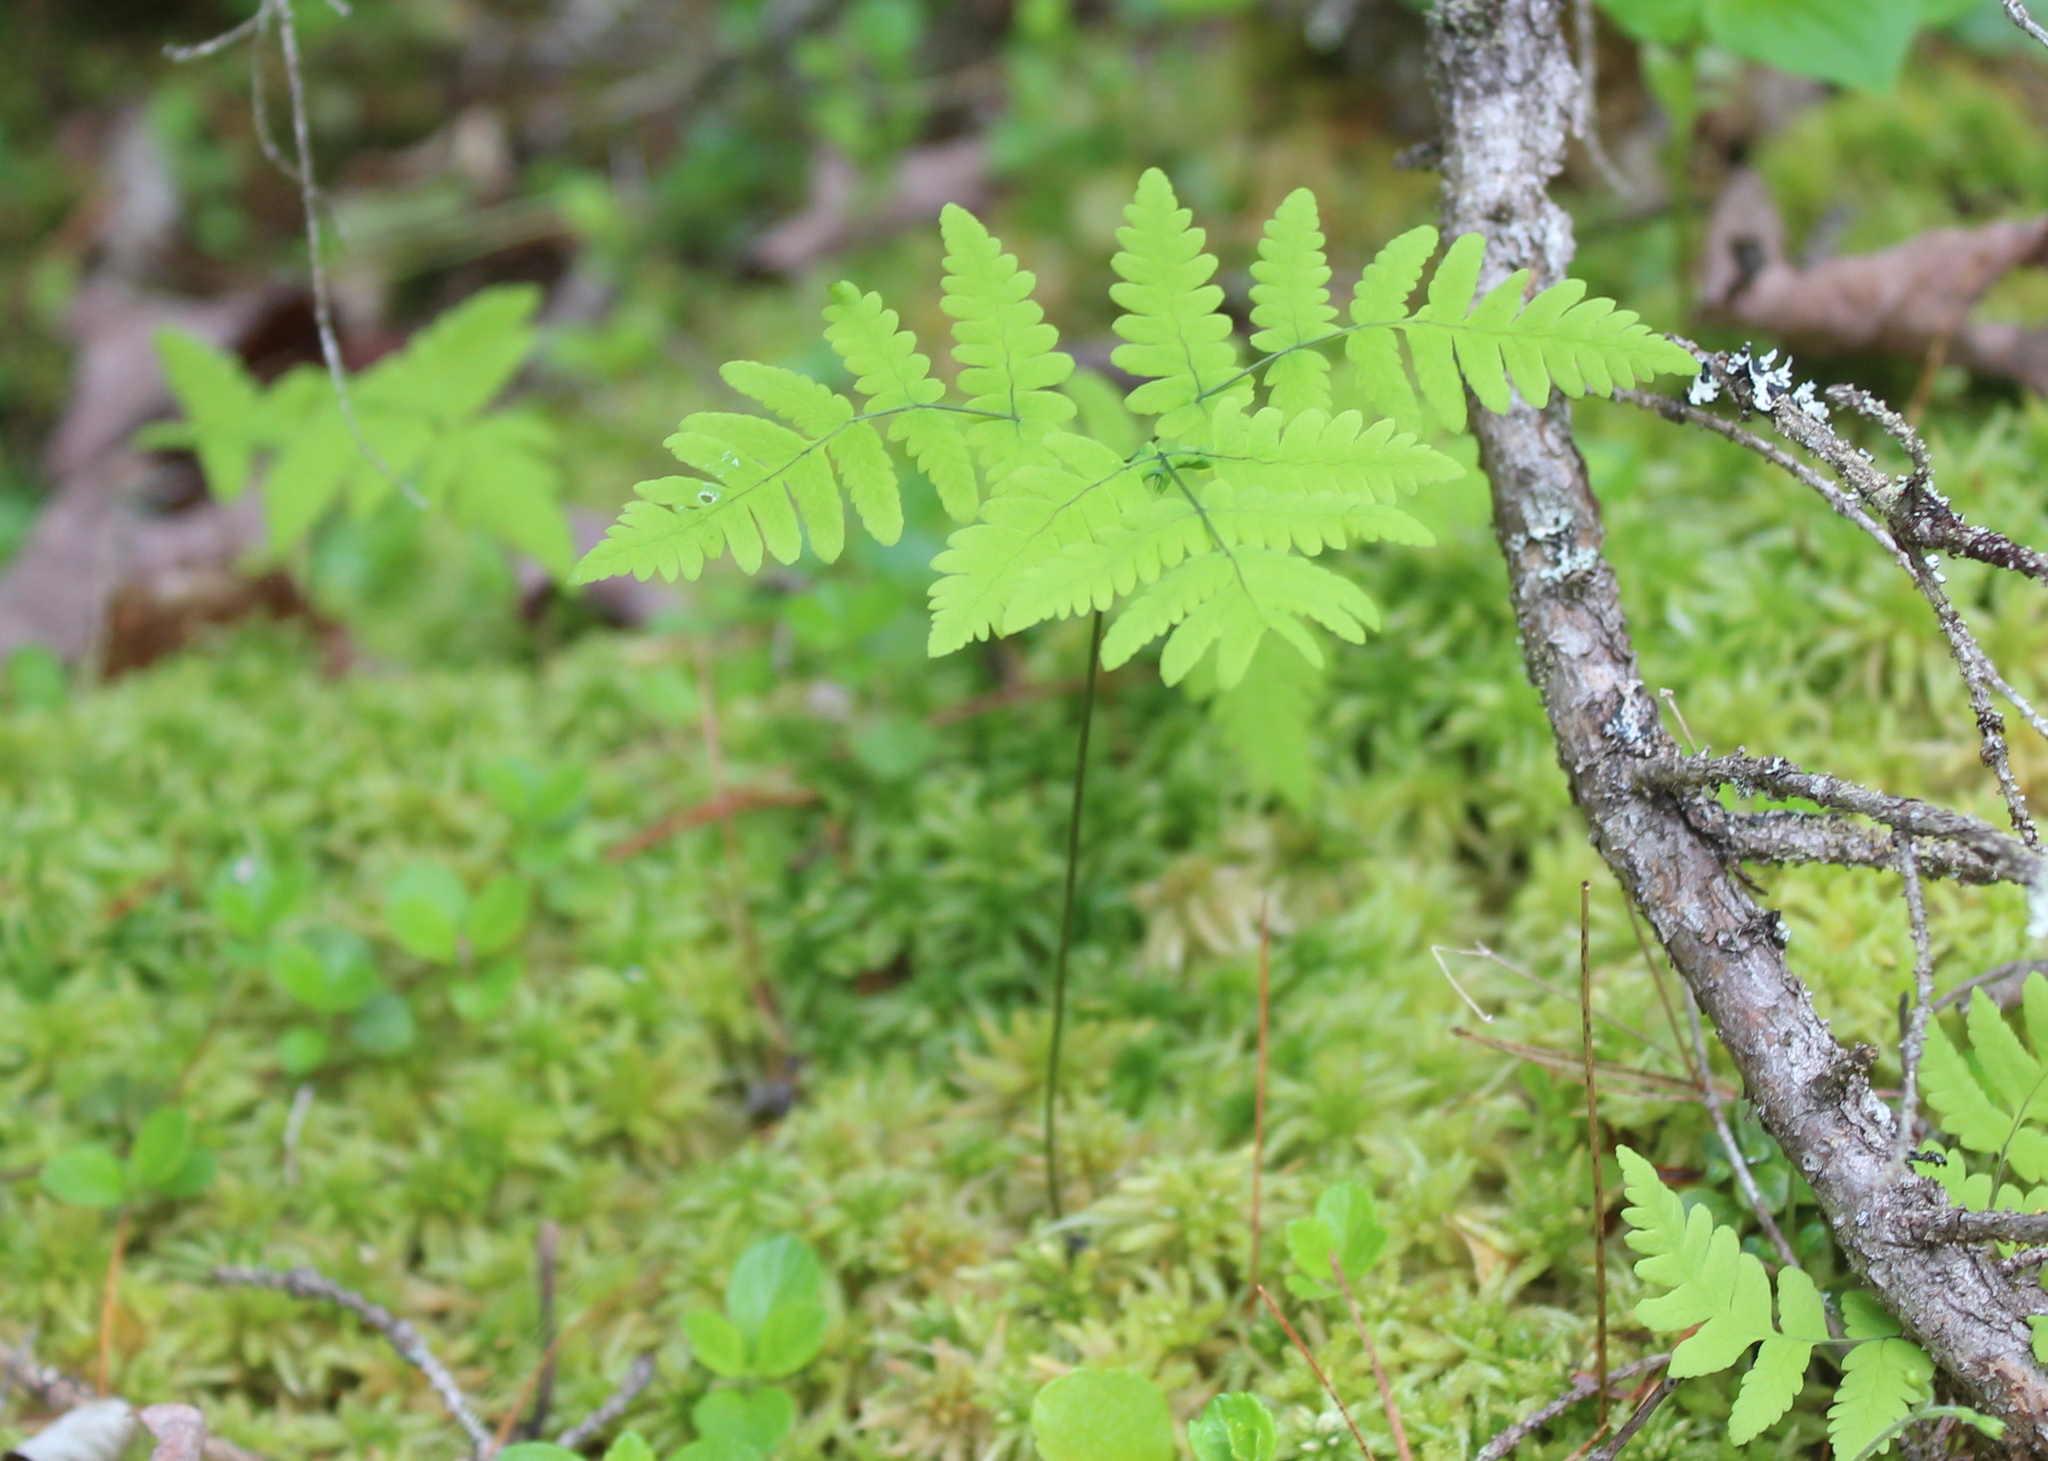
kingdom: Plantae
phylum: Tracheophyta
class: Polypodiopsida
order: Polypodiales
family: Cystopteridaceae
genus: Gymnocarpium
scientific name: Gymnocarpium dryopteris
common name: Oak fern
